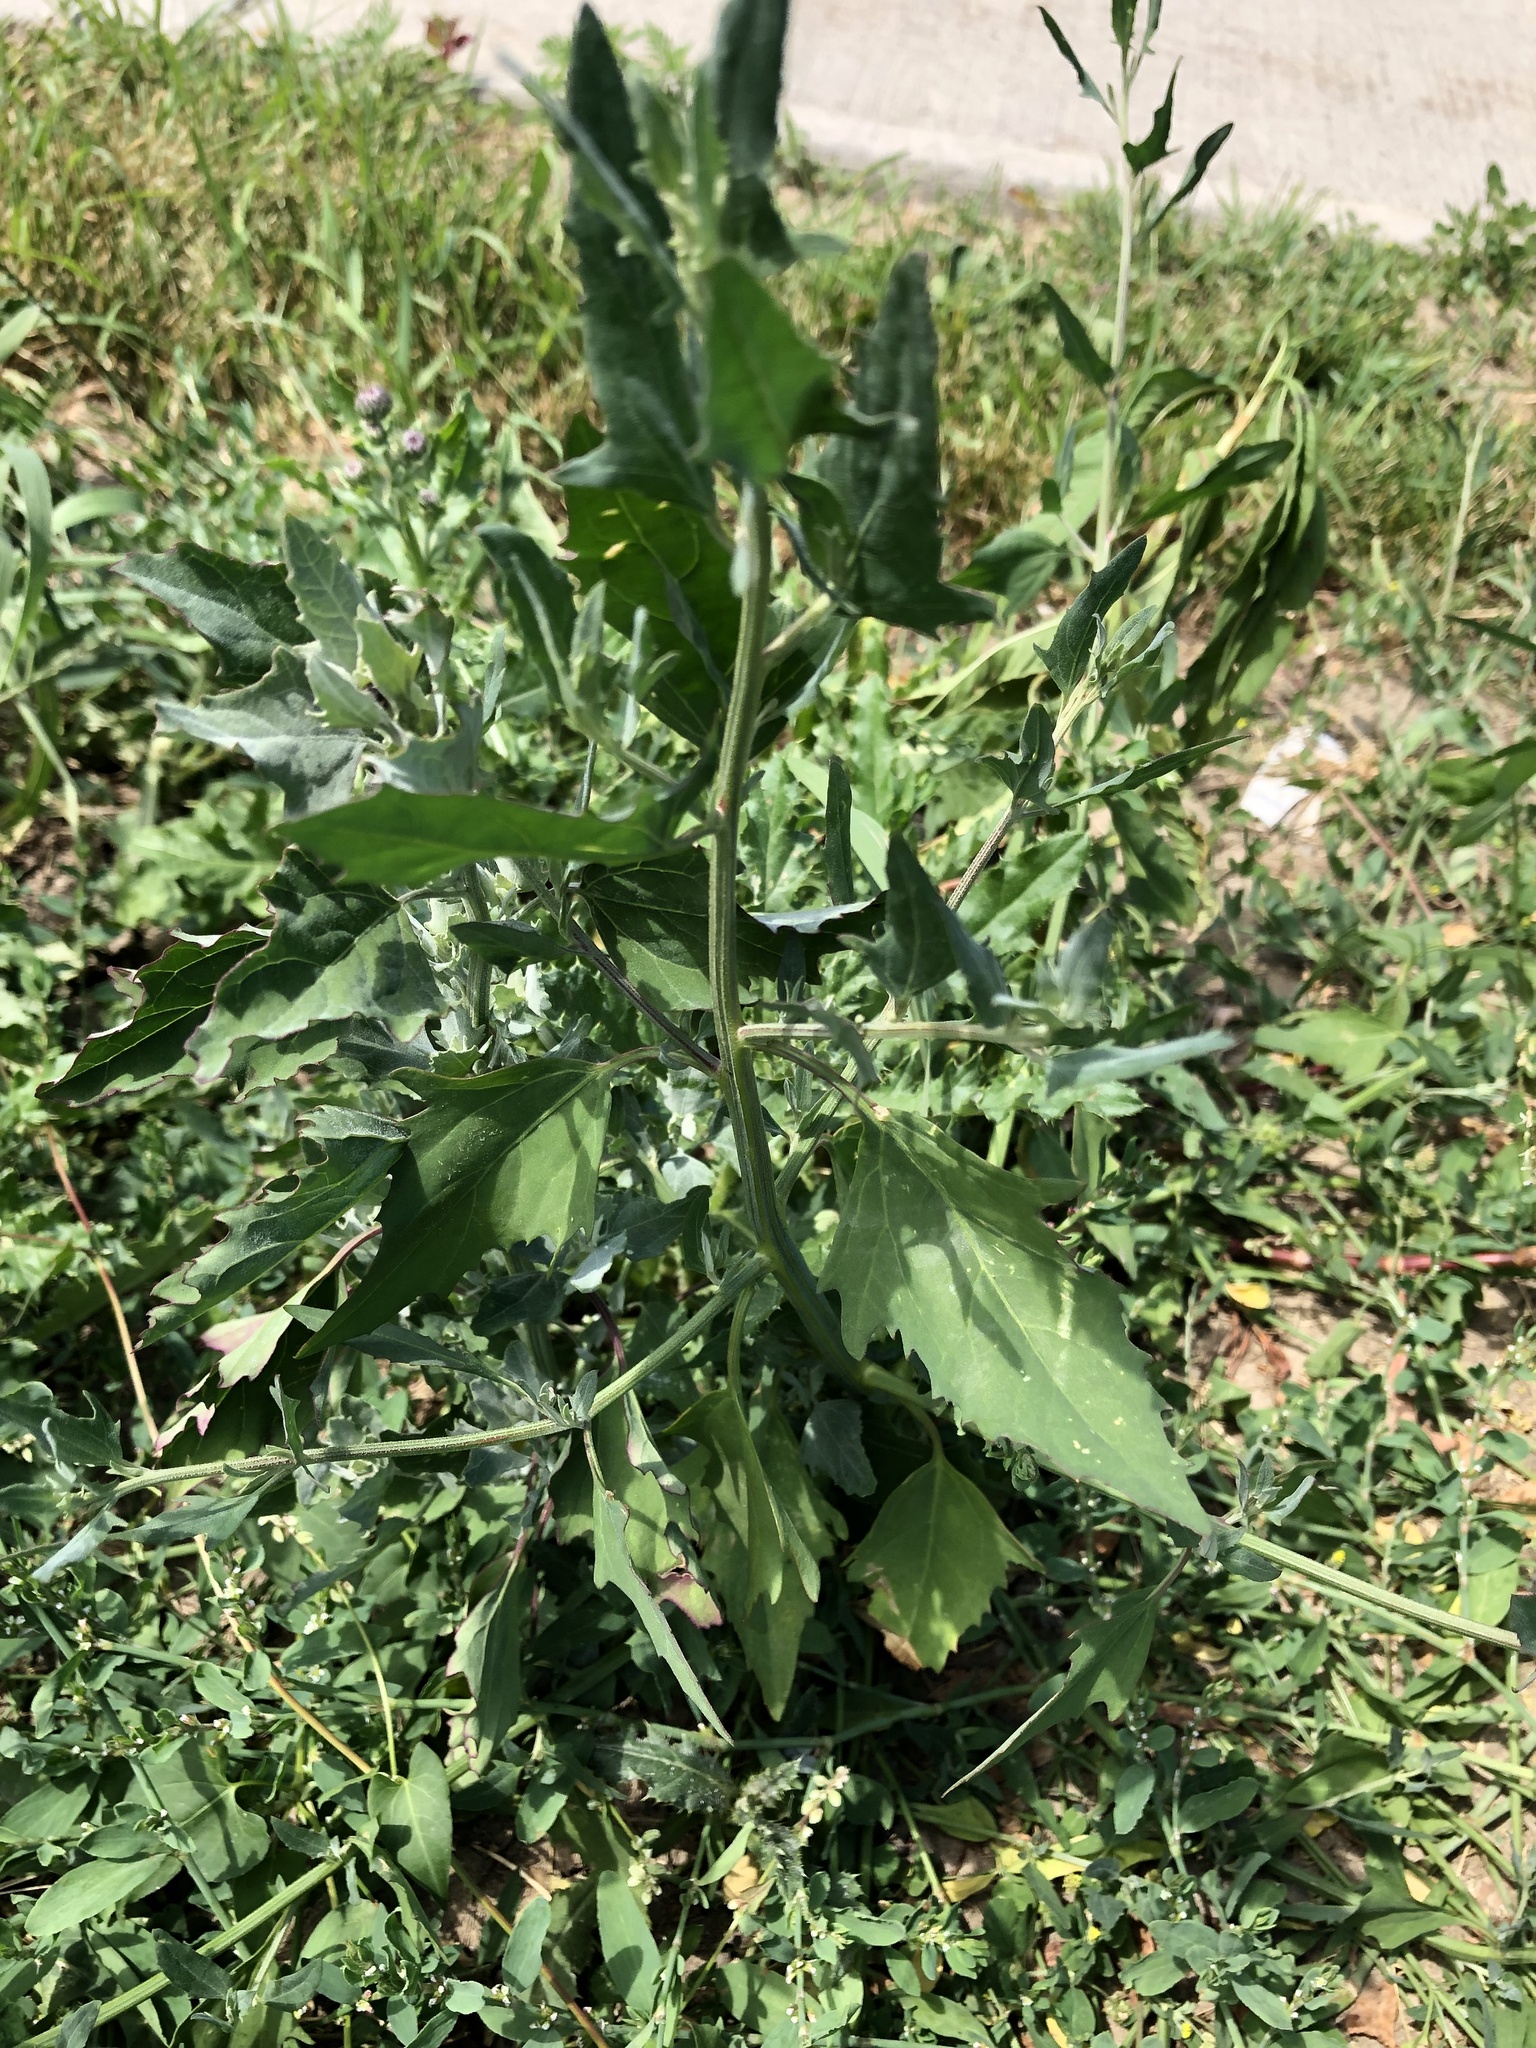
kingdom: Plantae
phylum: Tracheophyta
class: Magnoliopsida
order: Caryophyllales
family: Amaranthaceae
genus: Chenopodium
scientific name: Chenopodium album
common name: Fat-hen
